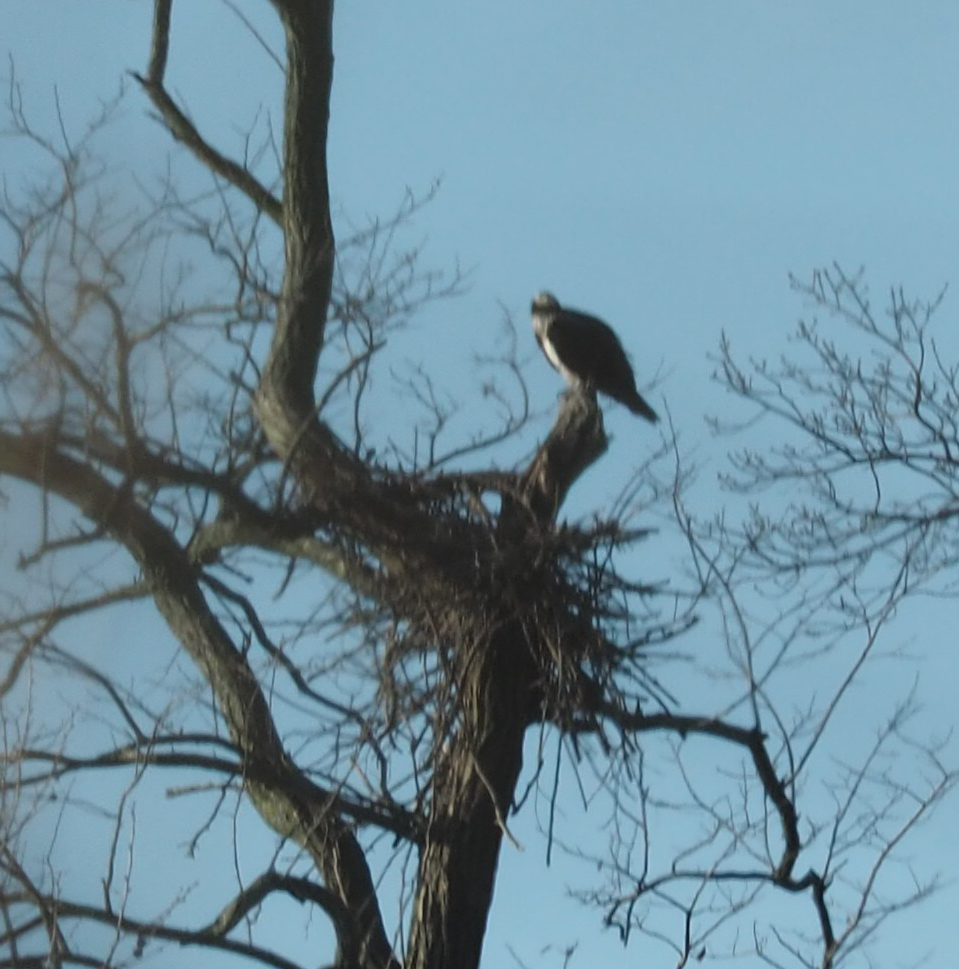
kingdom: Animalia
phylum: Chordata
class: Aves
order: Accipitriformes
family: Pandionidae
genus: Pandion
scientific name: Pandion haliaetus
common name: Osprey
